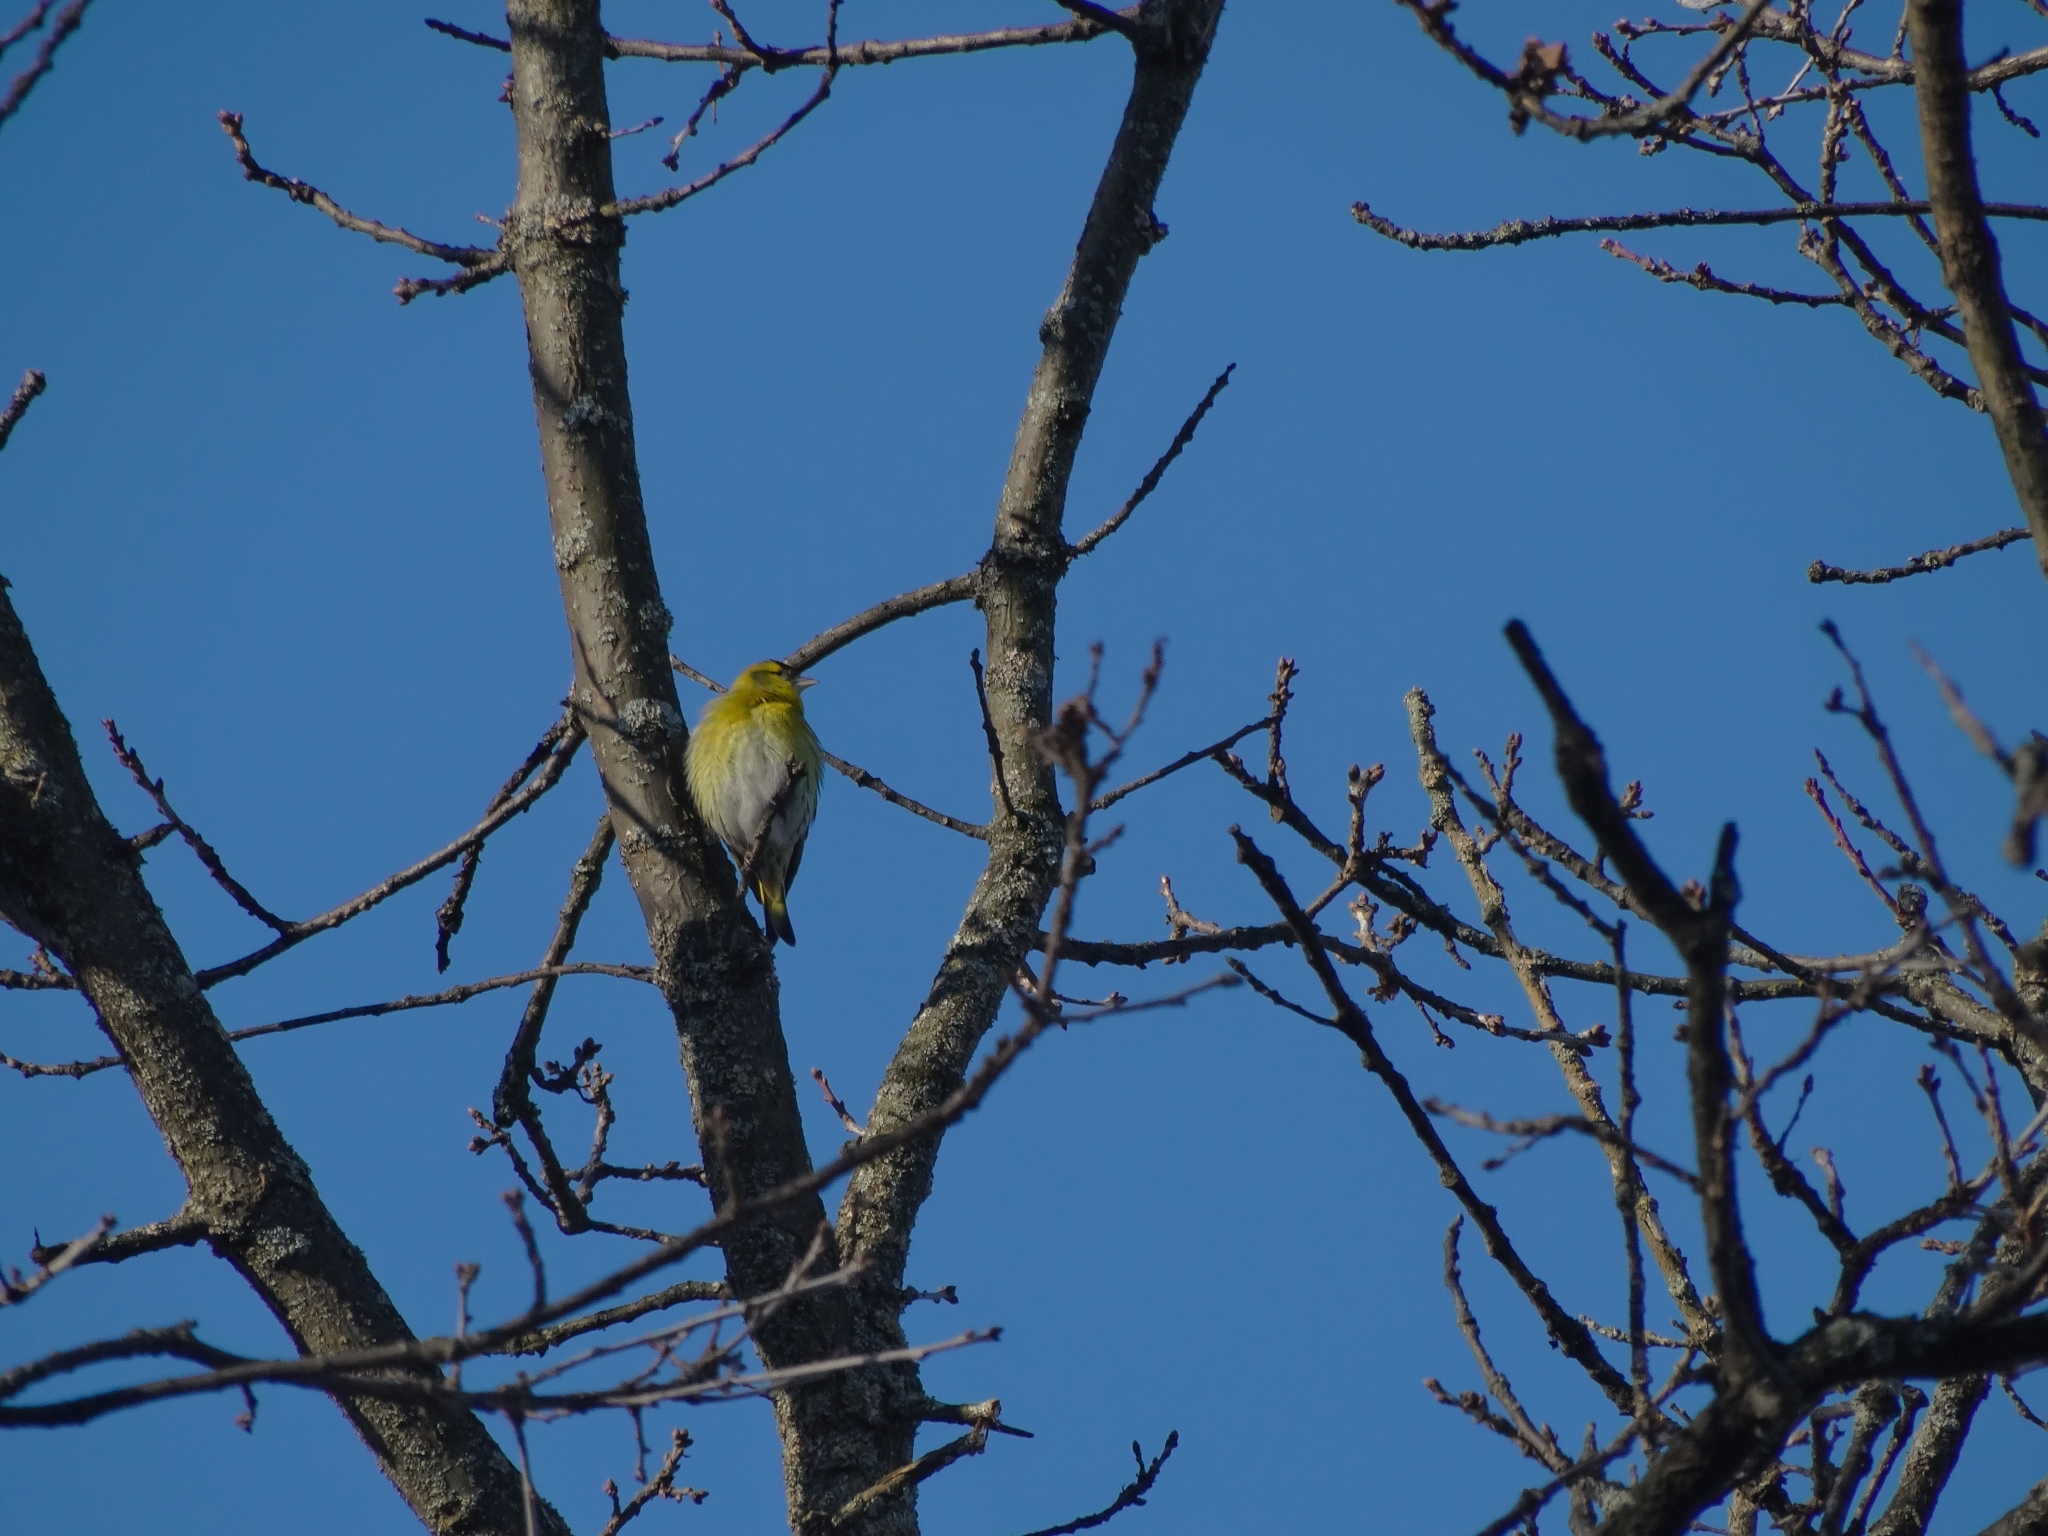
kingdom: Animalia
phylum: Chordata
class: Aves
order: Passeriformes
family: Fringillidae
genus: Spinus
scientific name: Spinus spinus
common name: Eurasian siskin
